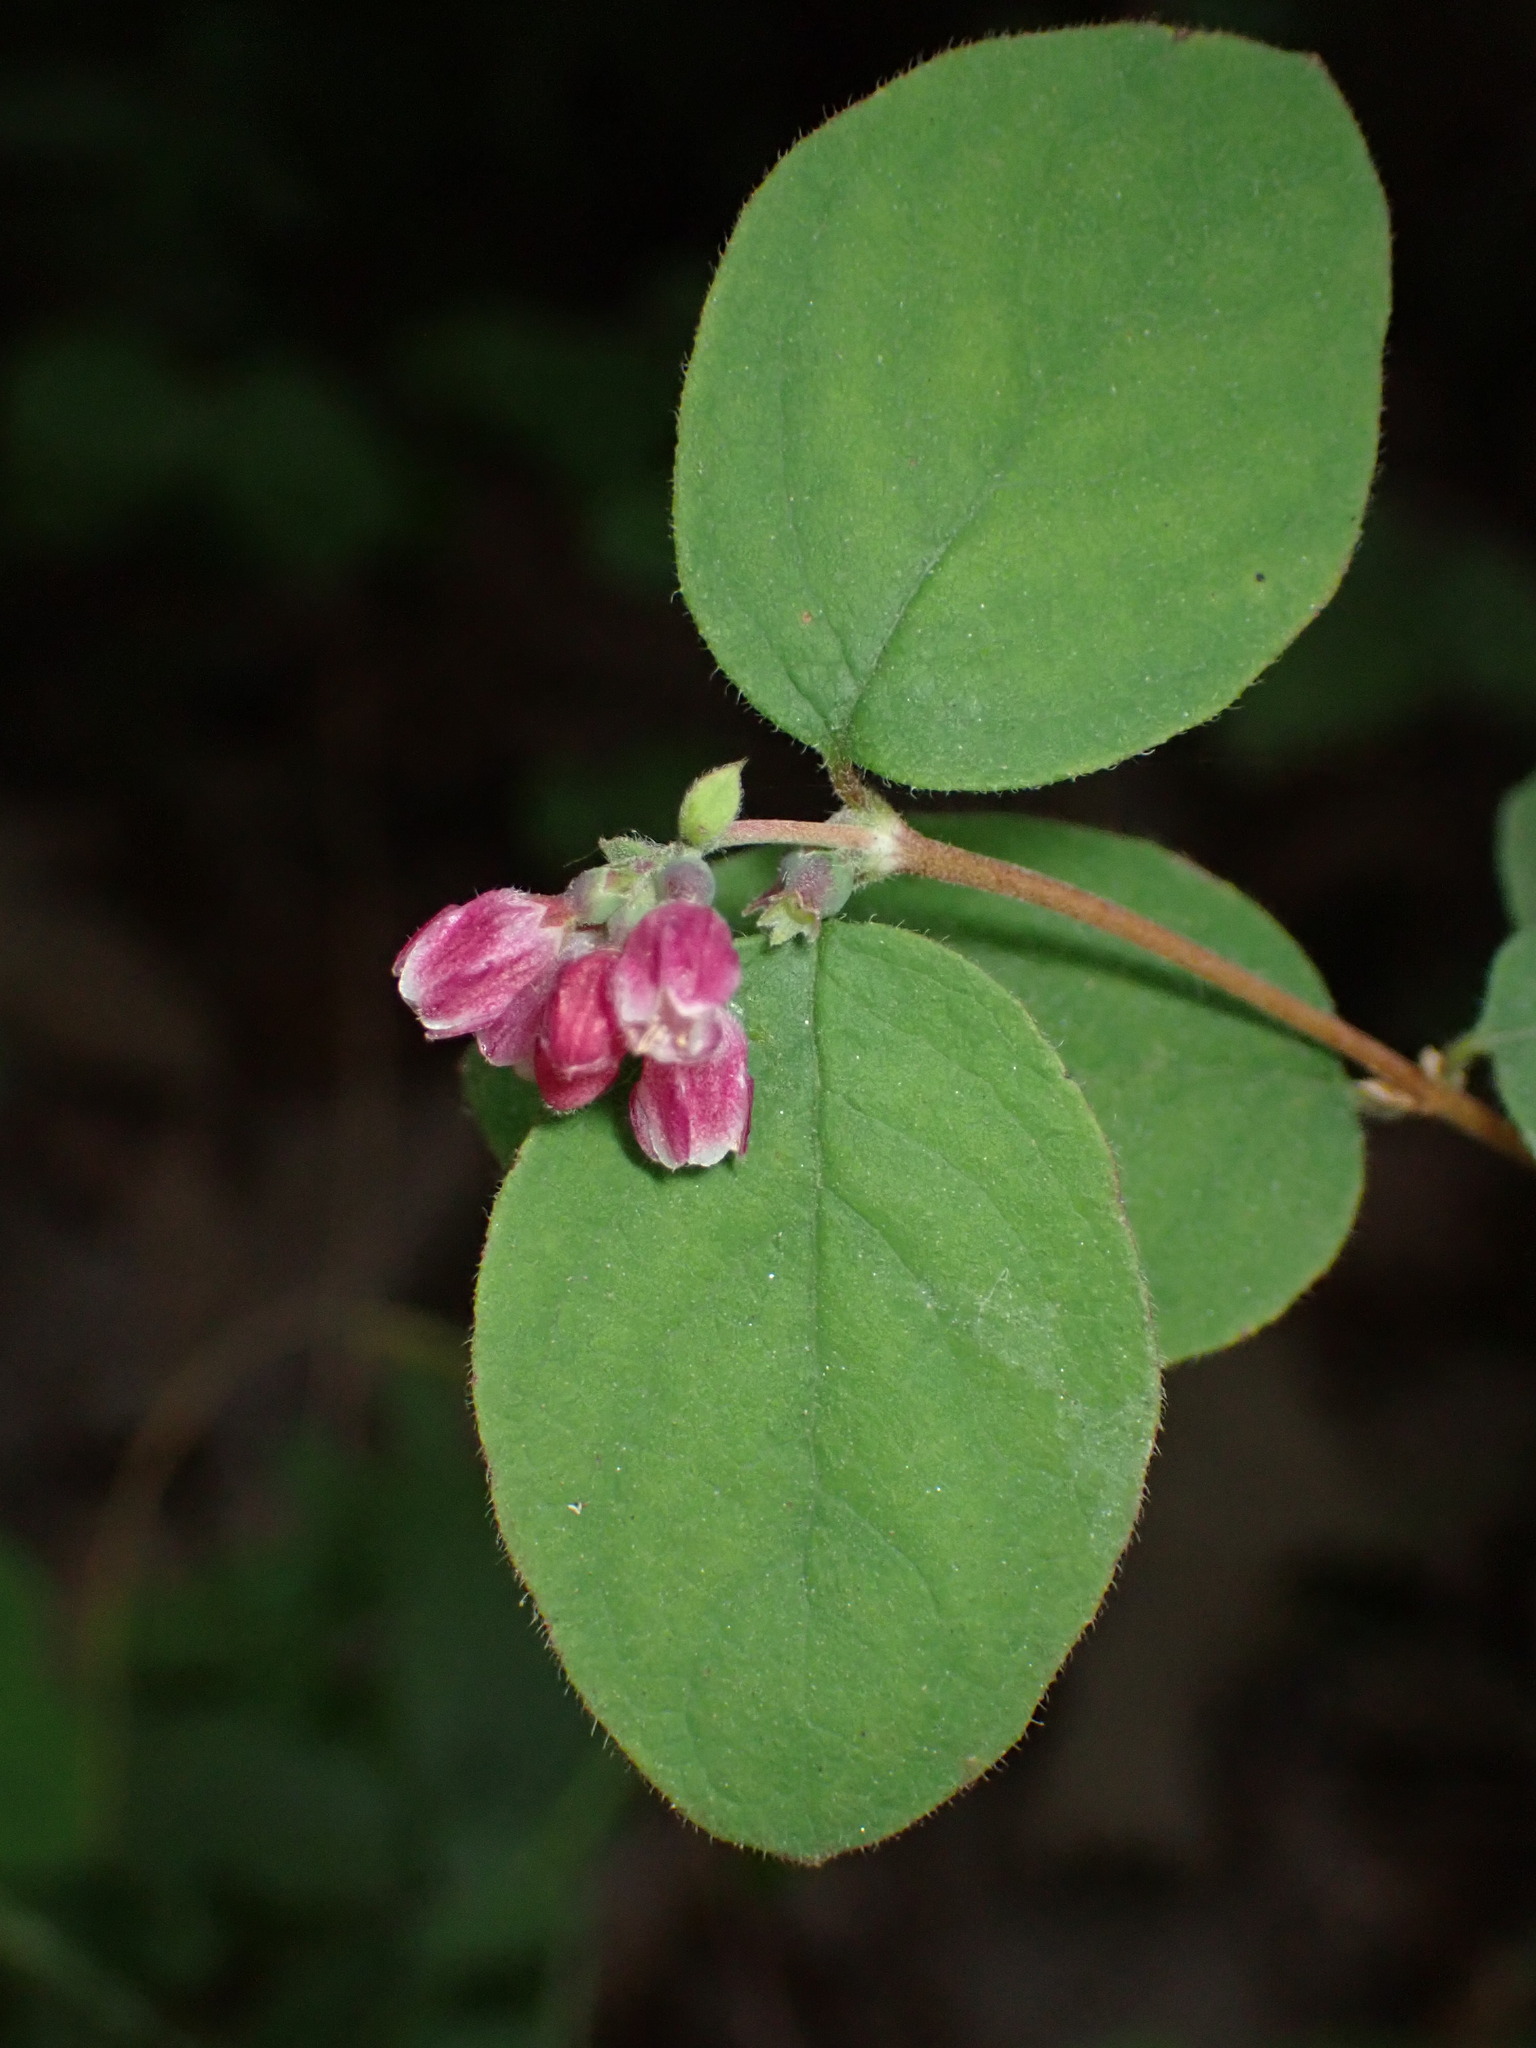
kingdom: Plantae
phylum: Tracheophyta
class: Magnoliopsida
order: Dipsacales
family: Caprifoliaceae
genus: Symphoricarpos
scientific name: Symphoricarpos mollis
